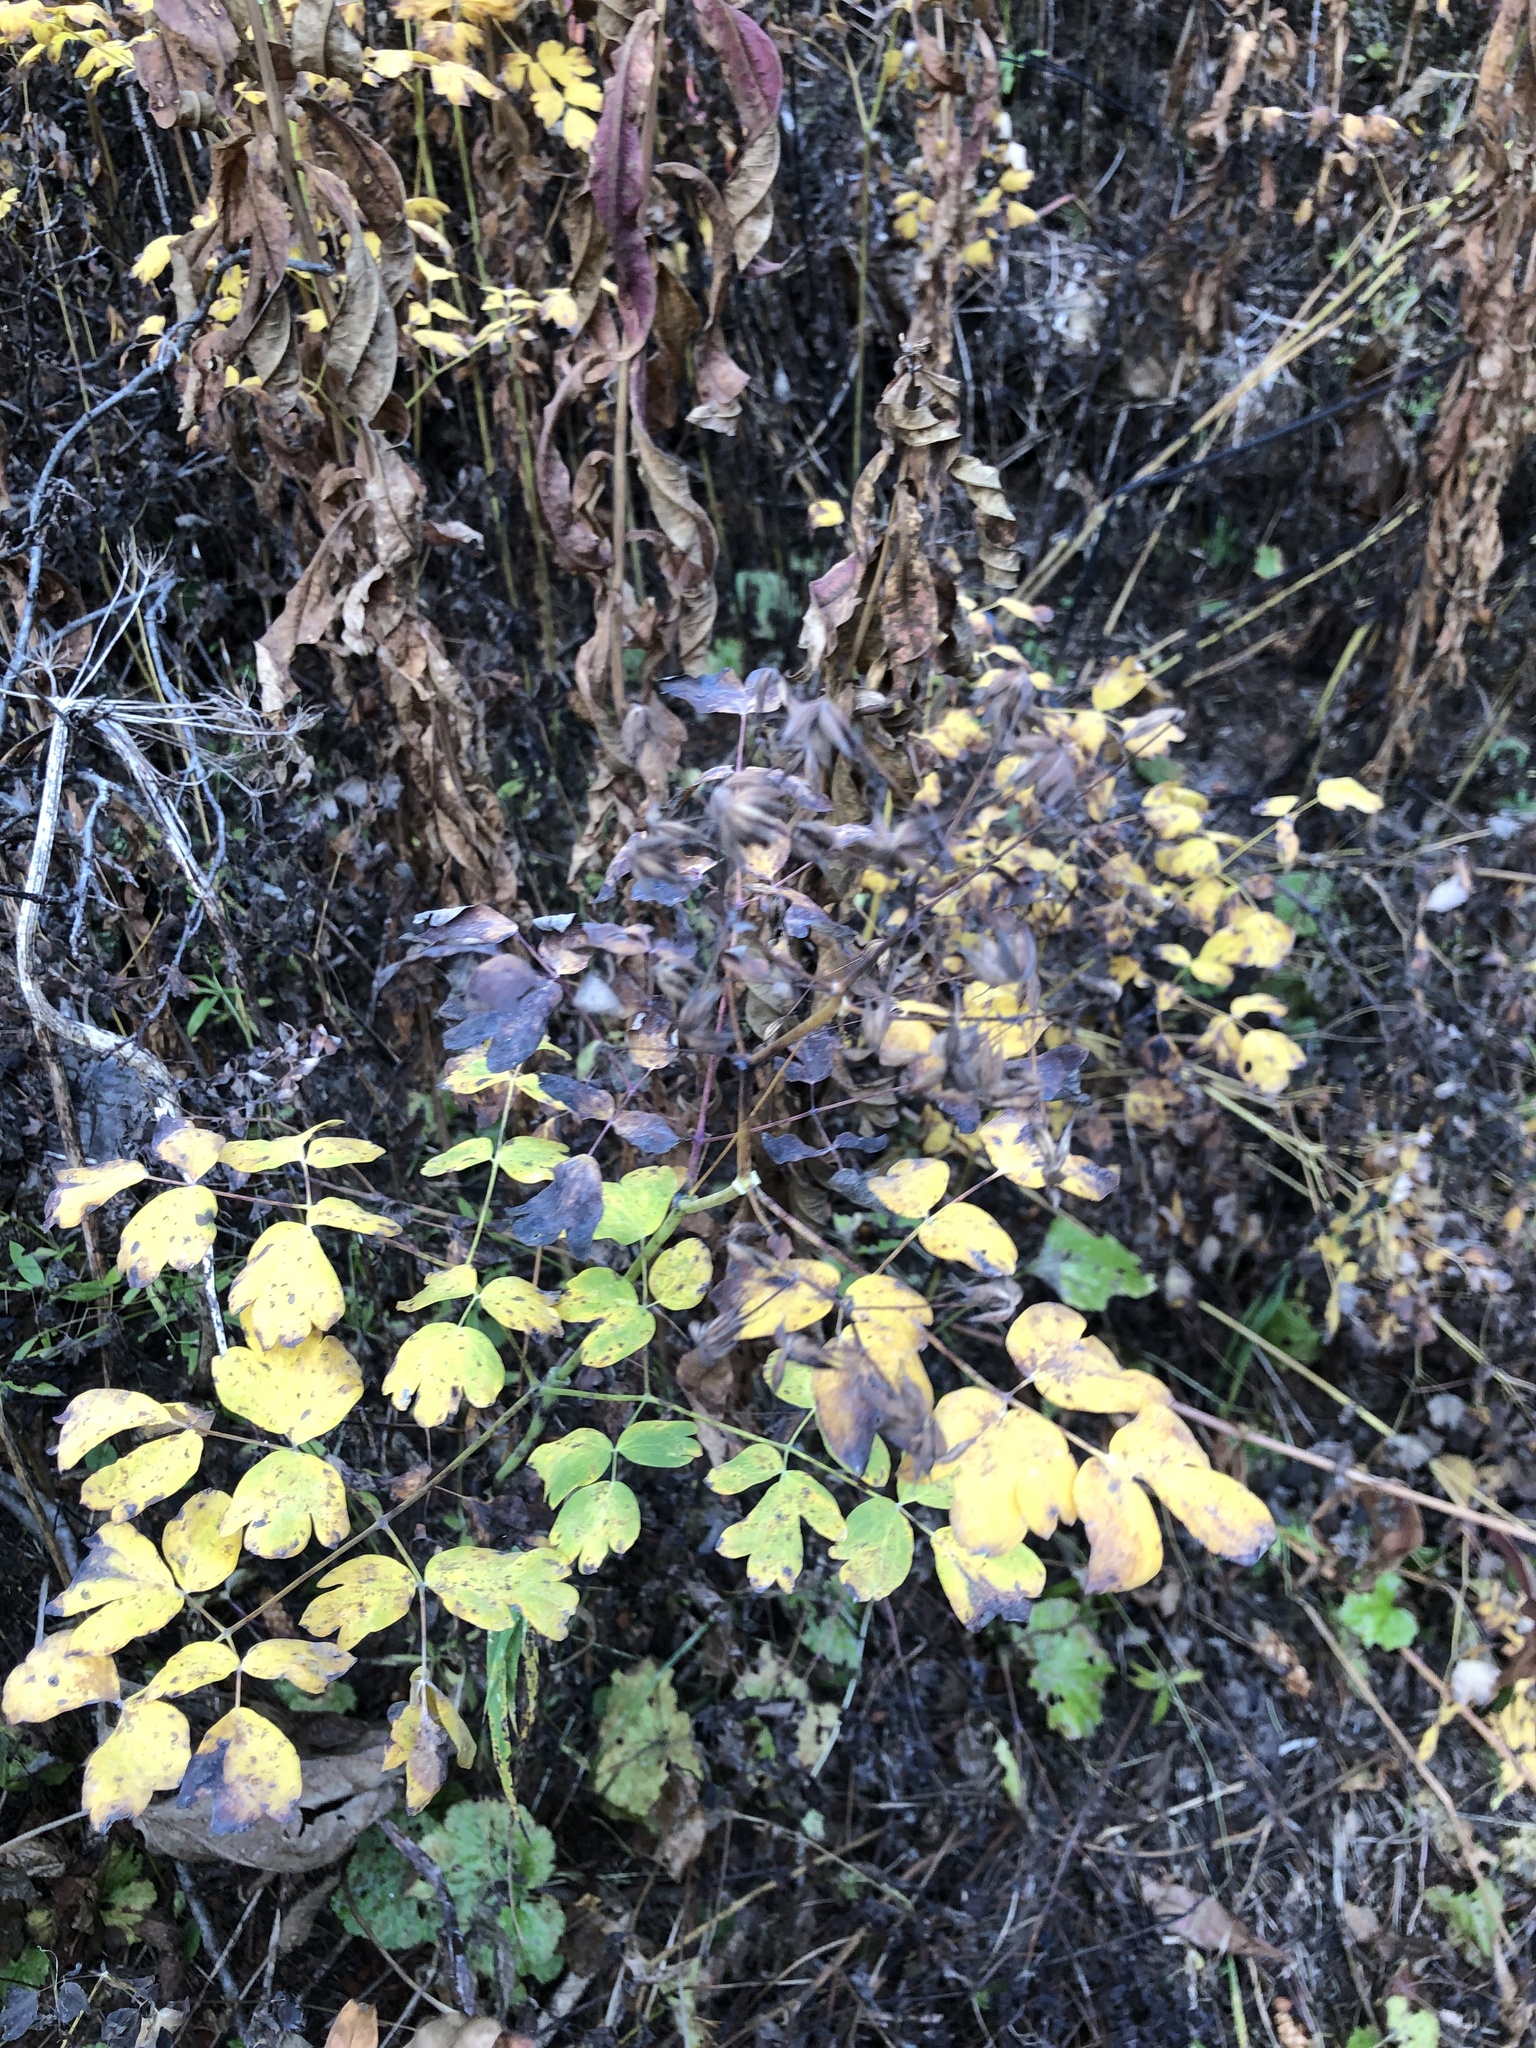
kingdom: Plantae
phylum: Tracheophyta
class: Magnoliopsida
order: Ranunculales
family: Ranunculaceae
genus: Thalictrum
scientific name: Thalictrum occidentale
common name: Western meadow-rue
